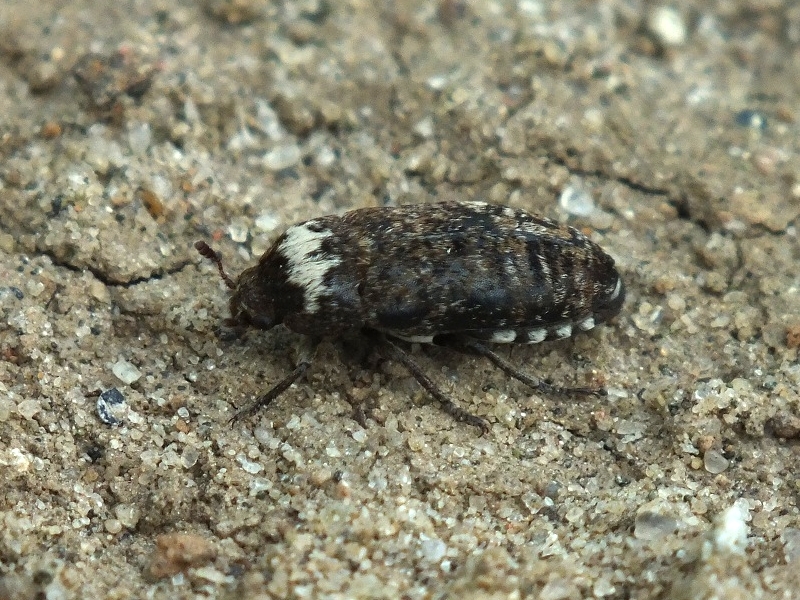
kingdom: Animalia
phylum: Arthropoda
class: Insecta
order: Coleoptera
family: Dermestidae
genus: Dermestes
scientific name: Dermestes coronatus
